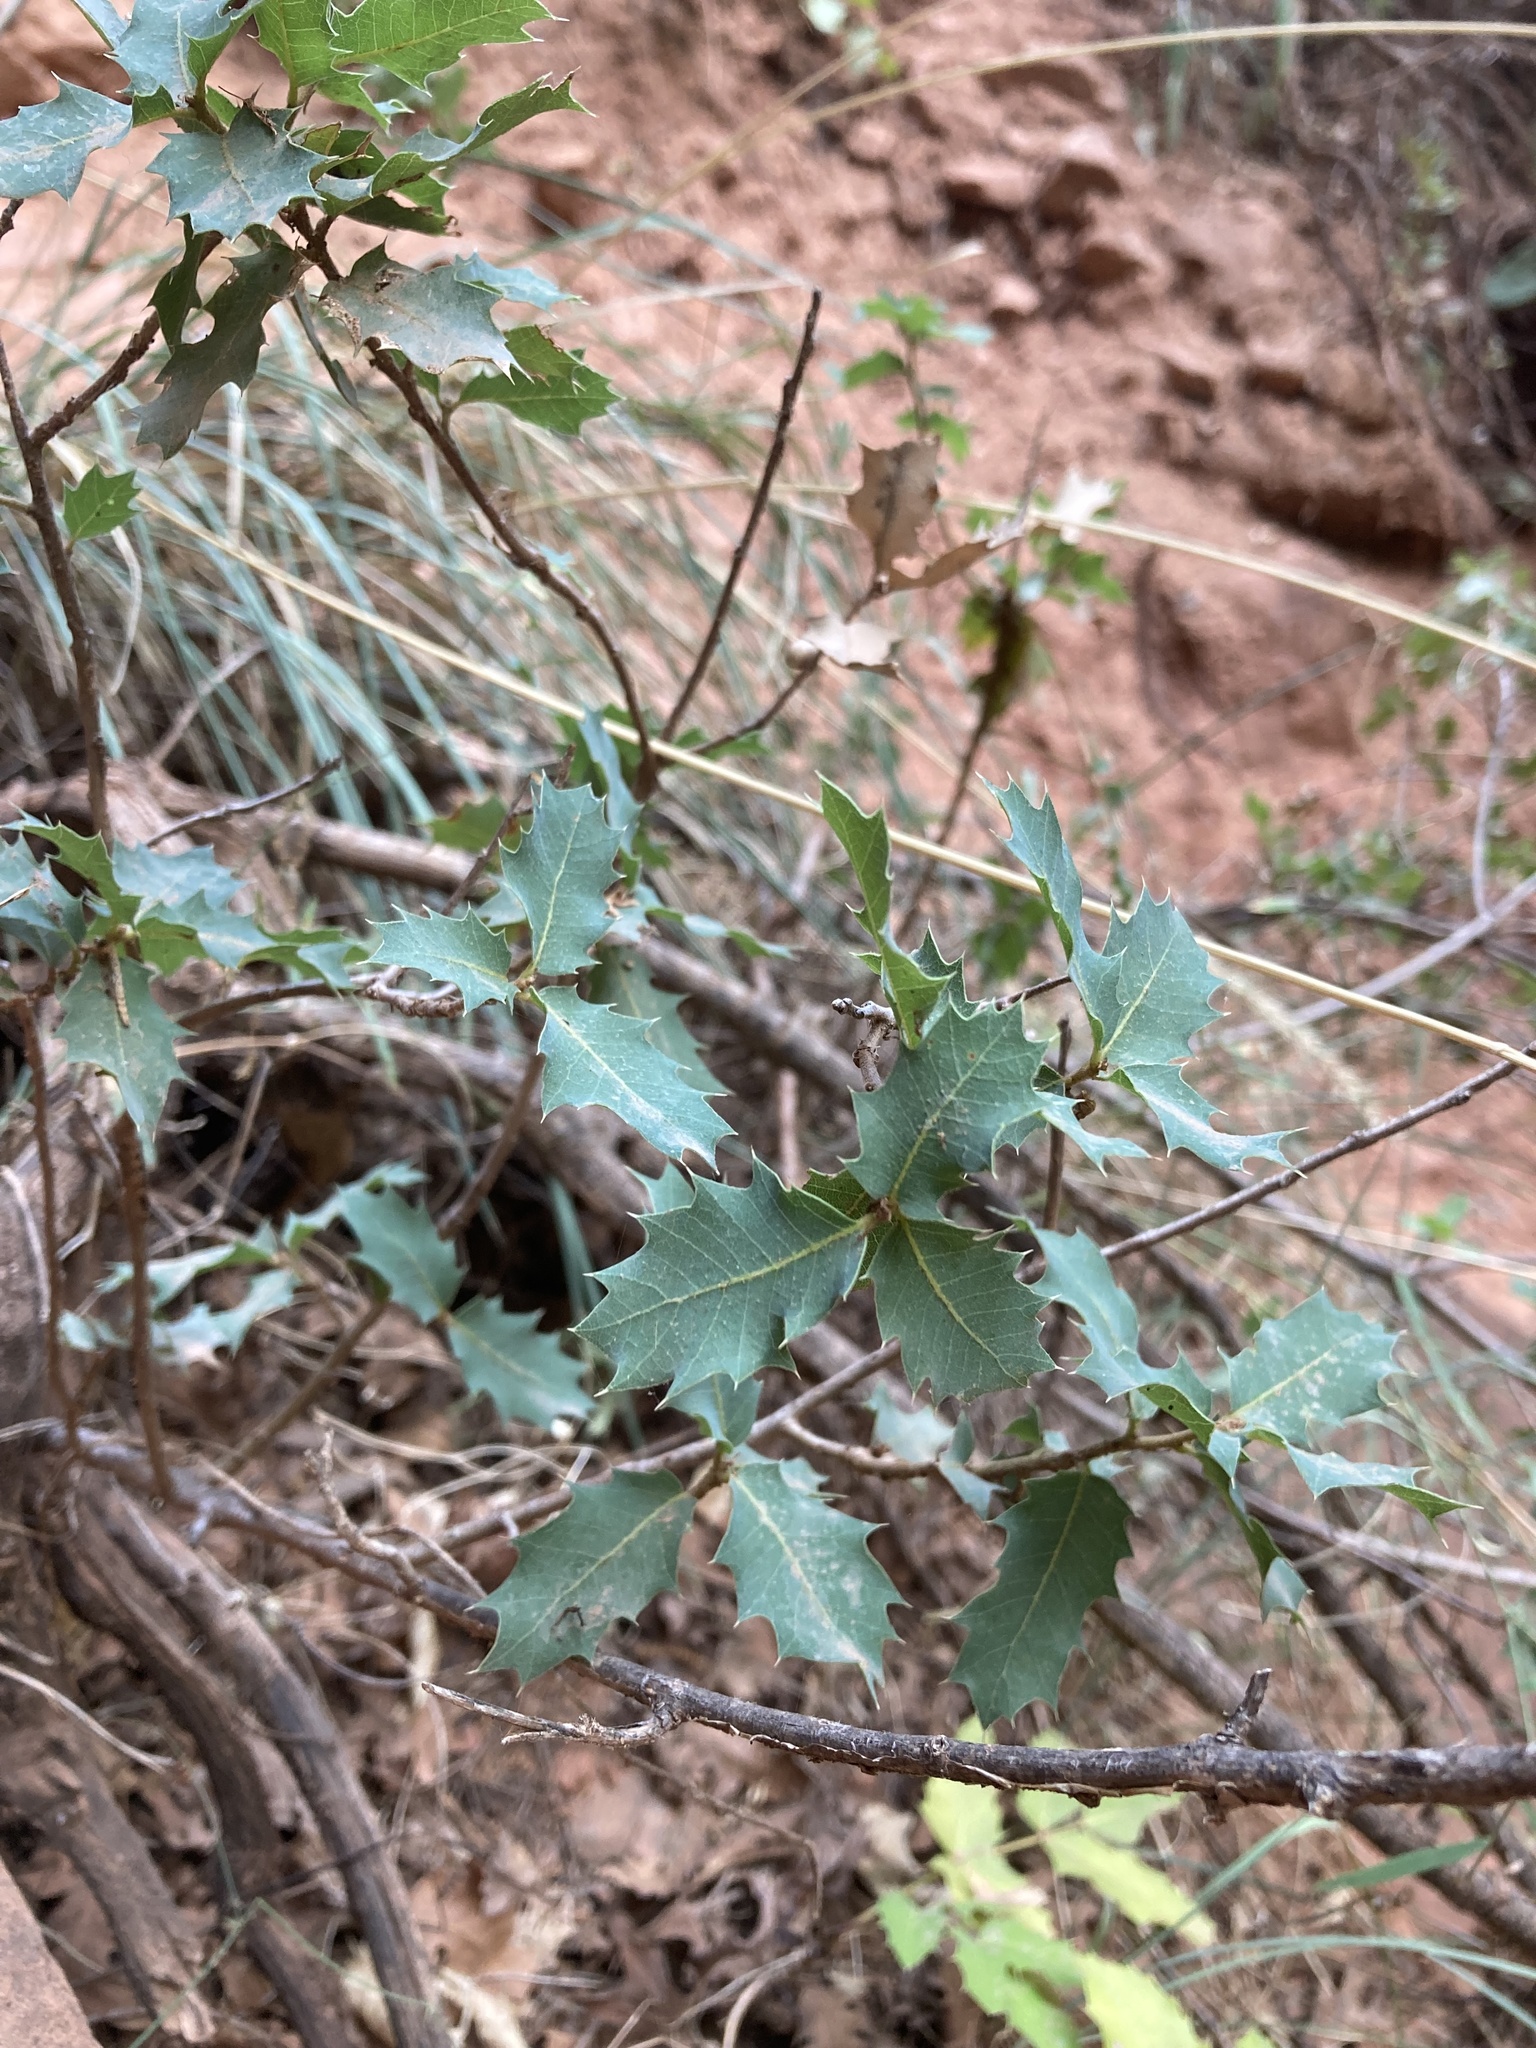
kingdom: Plantae
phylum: Tracheophyta
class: Magnoliopsida
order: Fagales
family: Fagaceae
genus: Quercus
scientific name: Quercus turbinella
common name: Sonoran scrub oak
